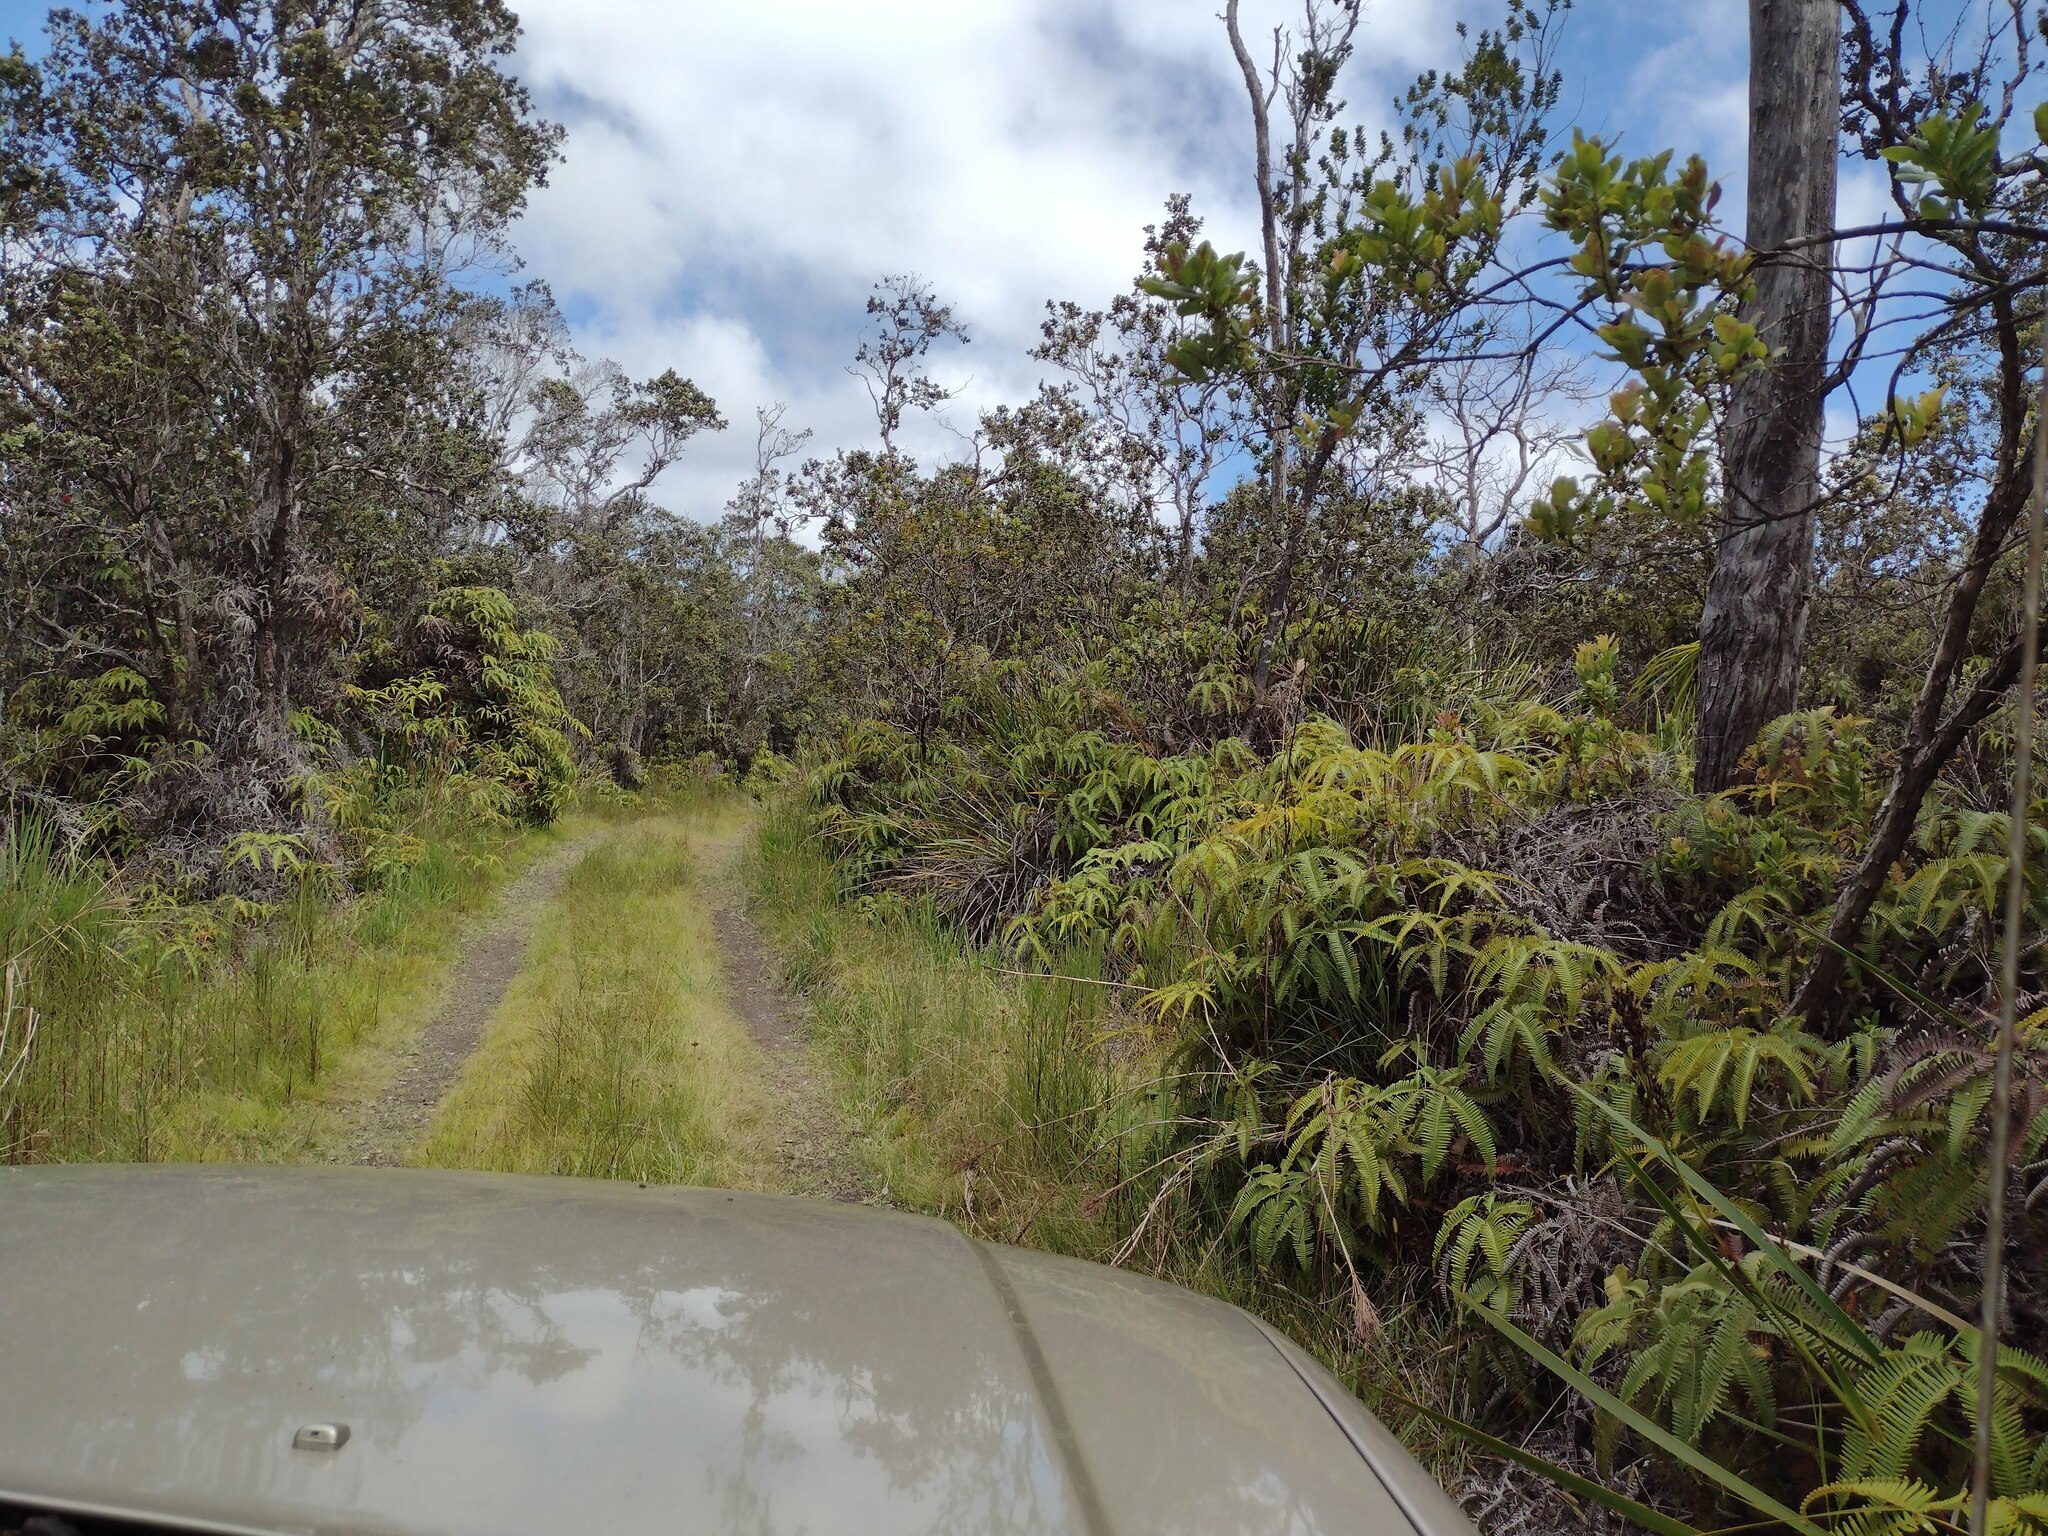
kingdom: Plantae
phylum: Tracheophyta
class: Polypodiopsida
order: Gleicheniales
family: Gleicheniaceae
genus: Dicranopteris
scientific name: Dicranopteris linearis
